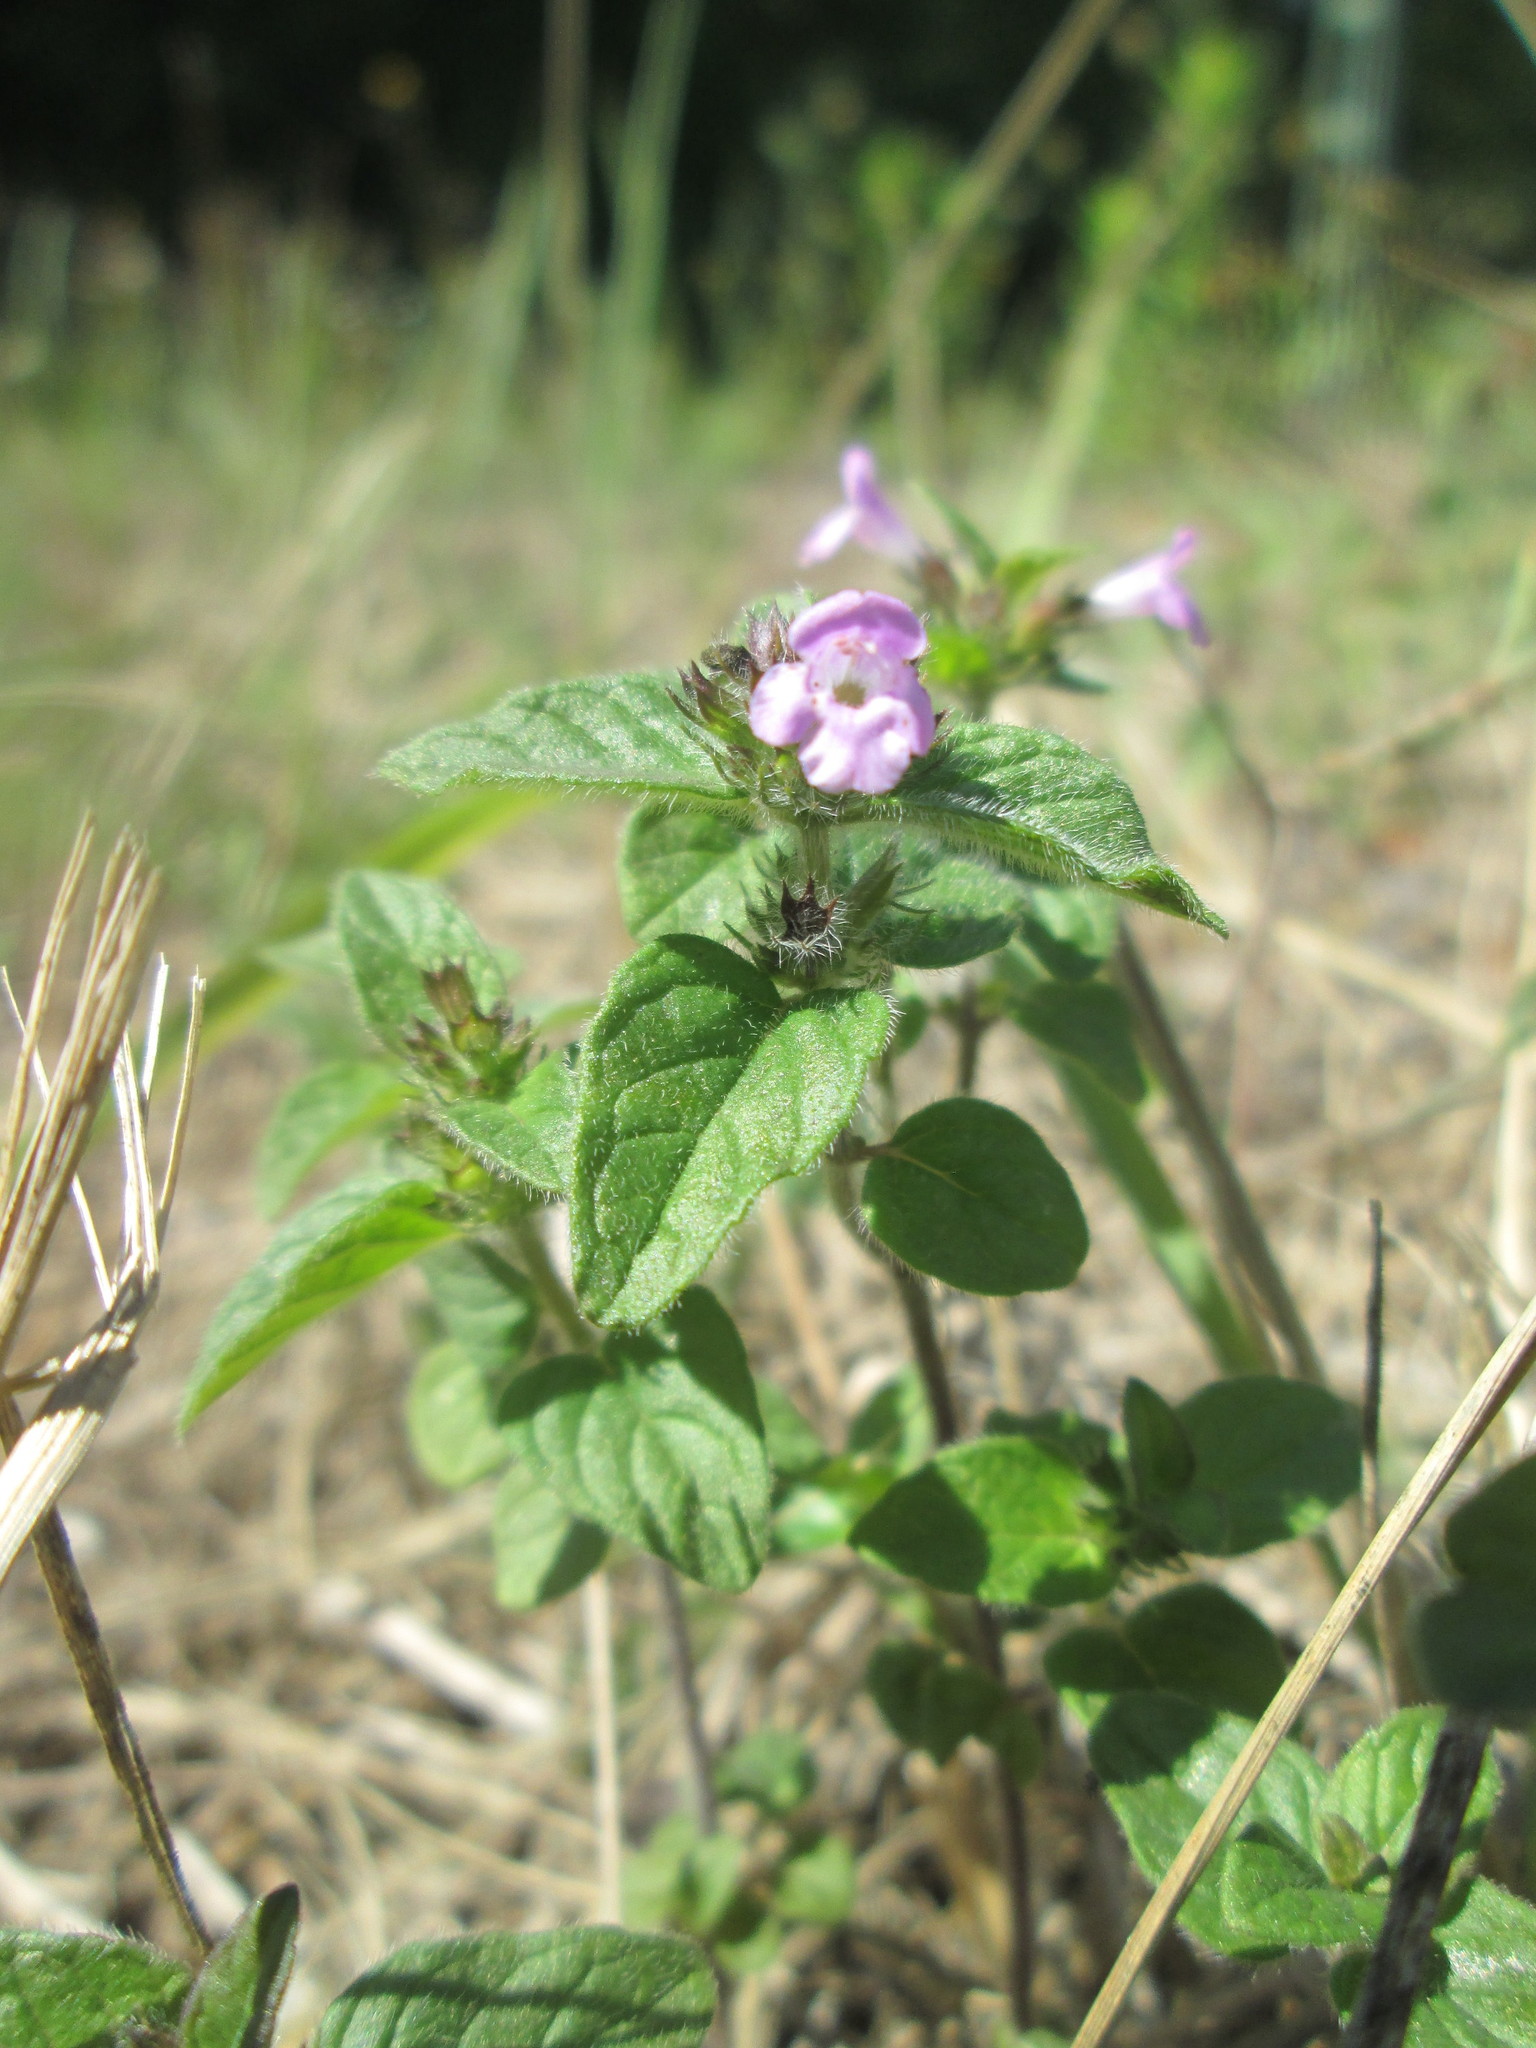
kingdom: Plantae
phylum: Tracheophyta
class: Magnoliopsida
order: Lamiales
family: Lamiaceae
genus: Clinopodium
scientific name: Clinopodium acinos
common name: Basil thyme
